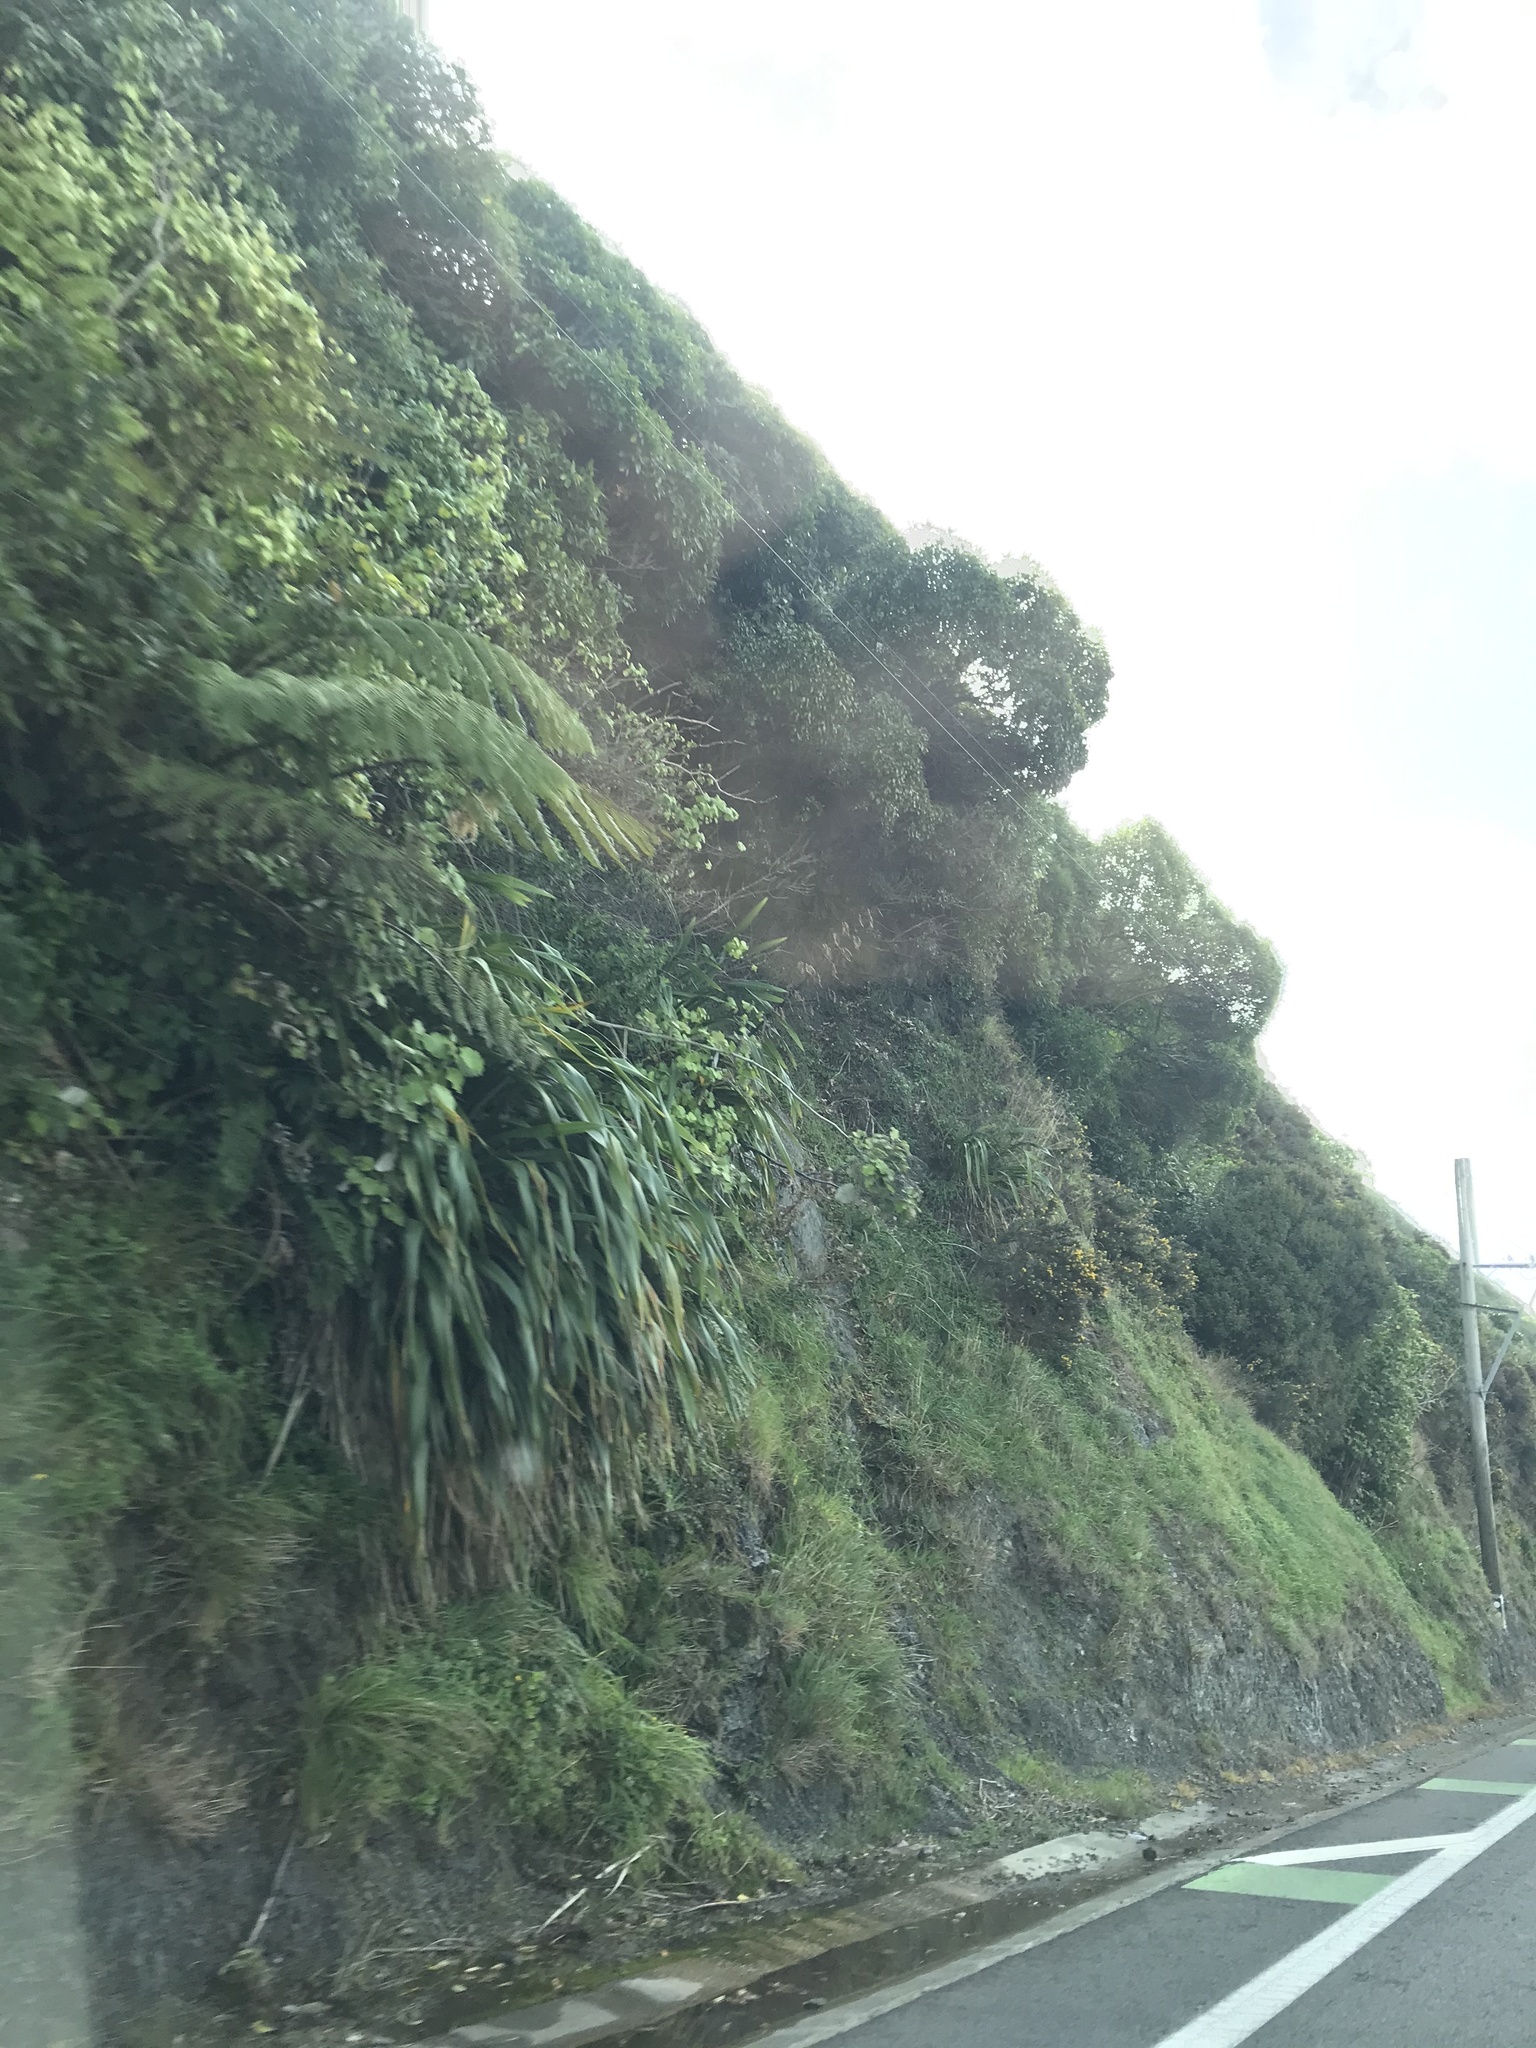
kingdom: Plantae
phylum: Tracheophyta
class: Polypodiopsida
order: Cyatheales
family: Cyatheaceae
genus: Sphaeropteris
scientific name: Sphaeropteris medullaris
